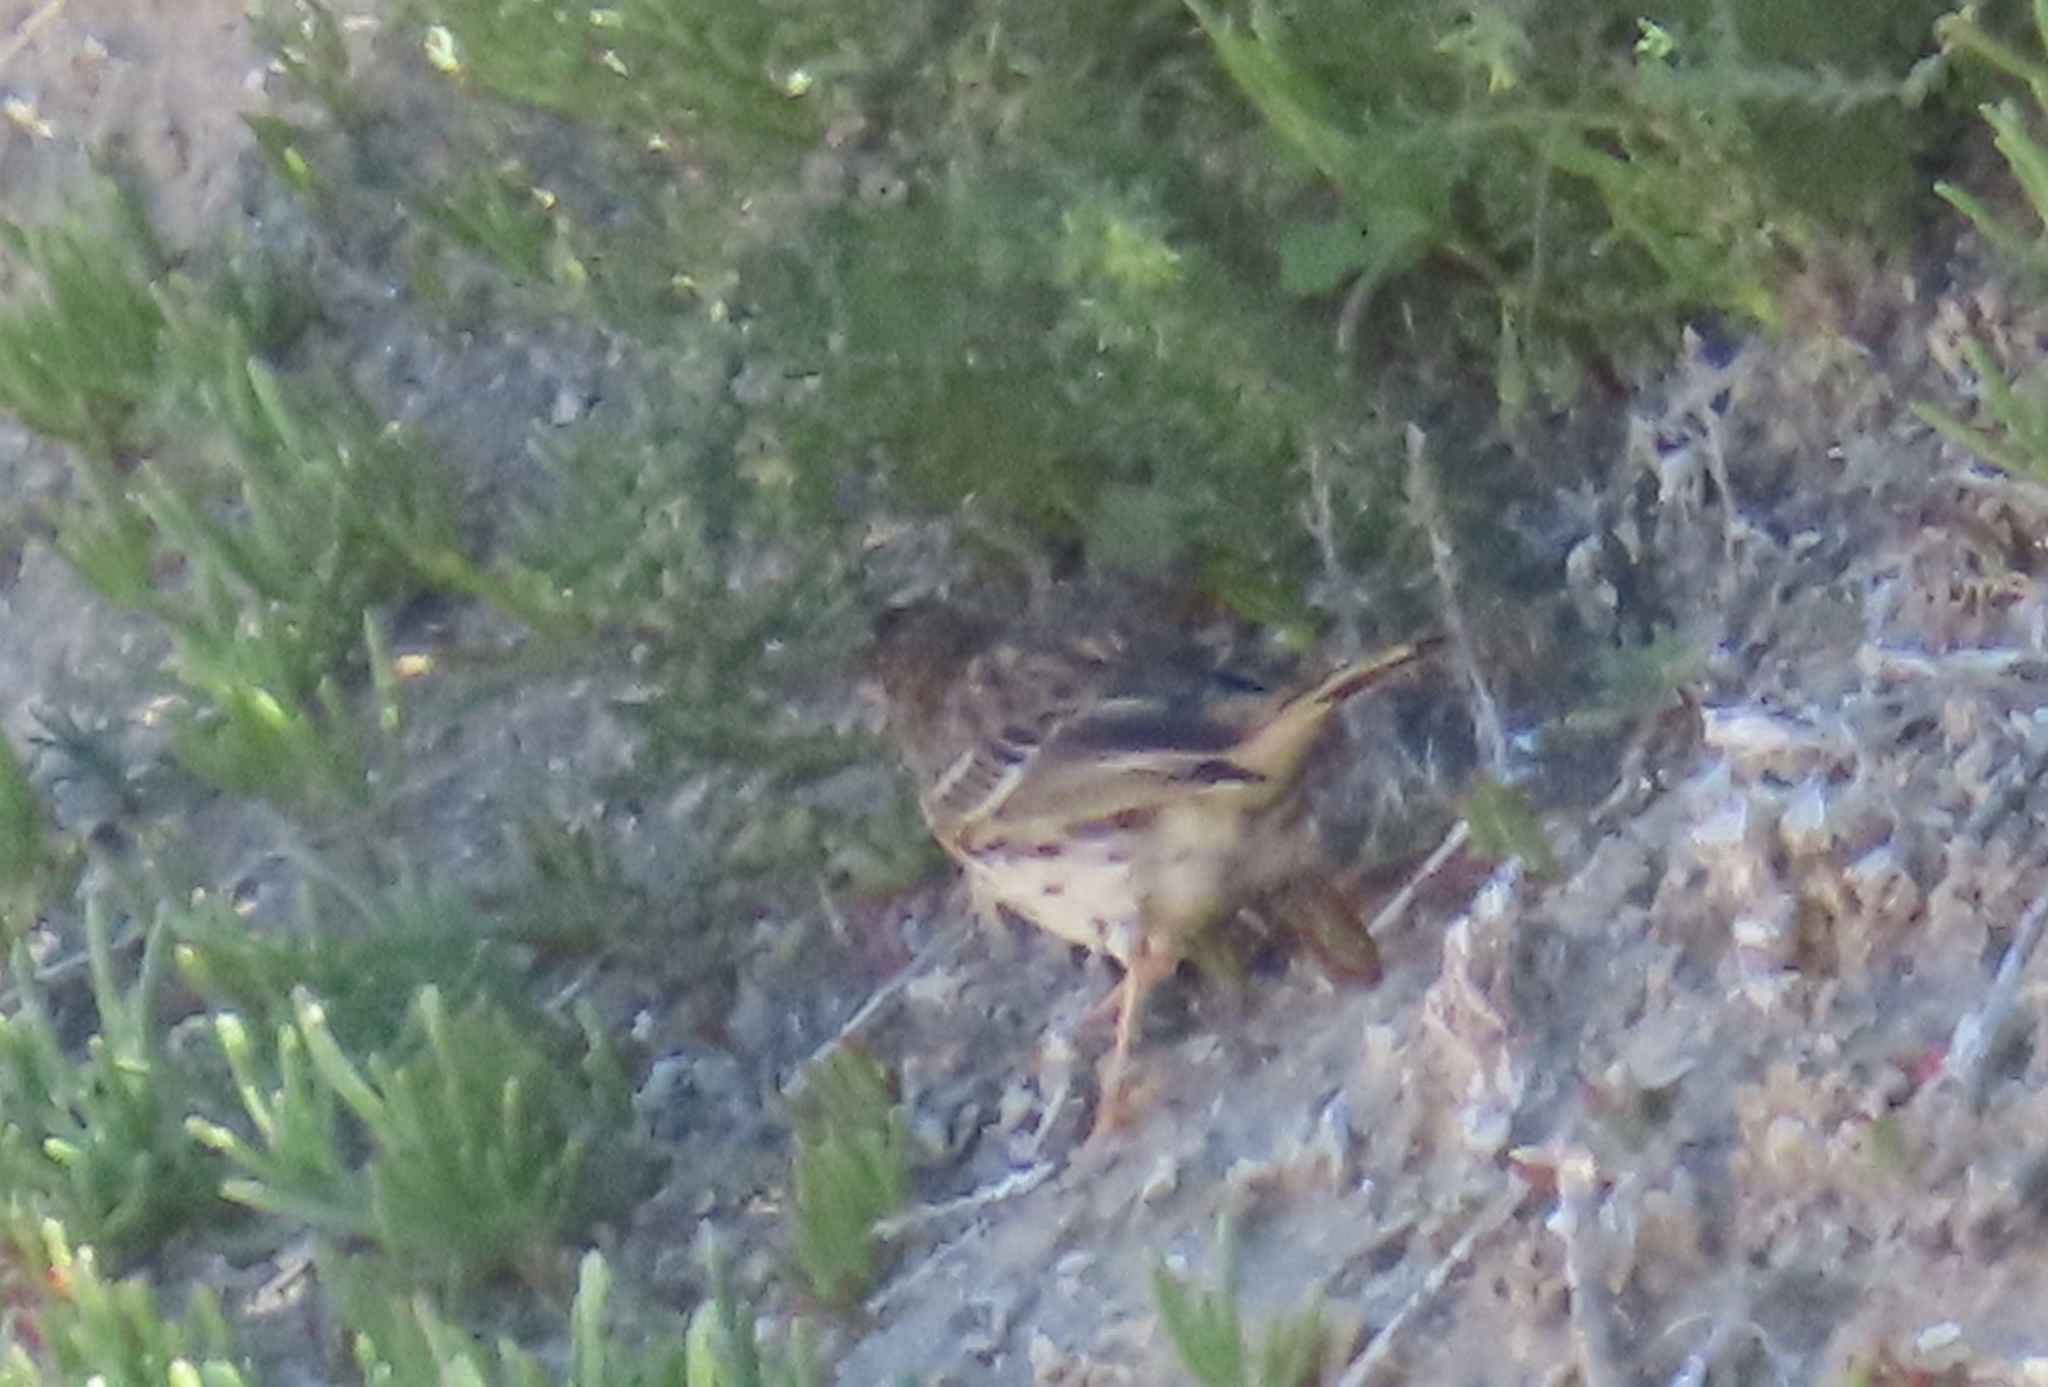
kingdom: Animalia
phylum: Chordata
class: Aves
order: Passeriformes
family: Motacillidae
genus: Anthus
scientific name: Anthus pratensis
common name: Meadow pipit
